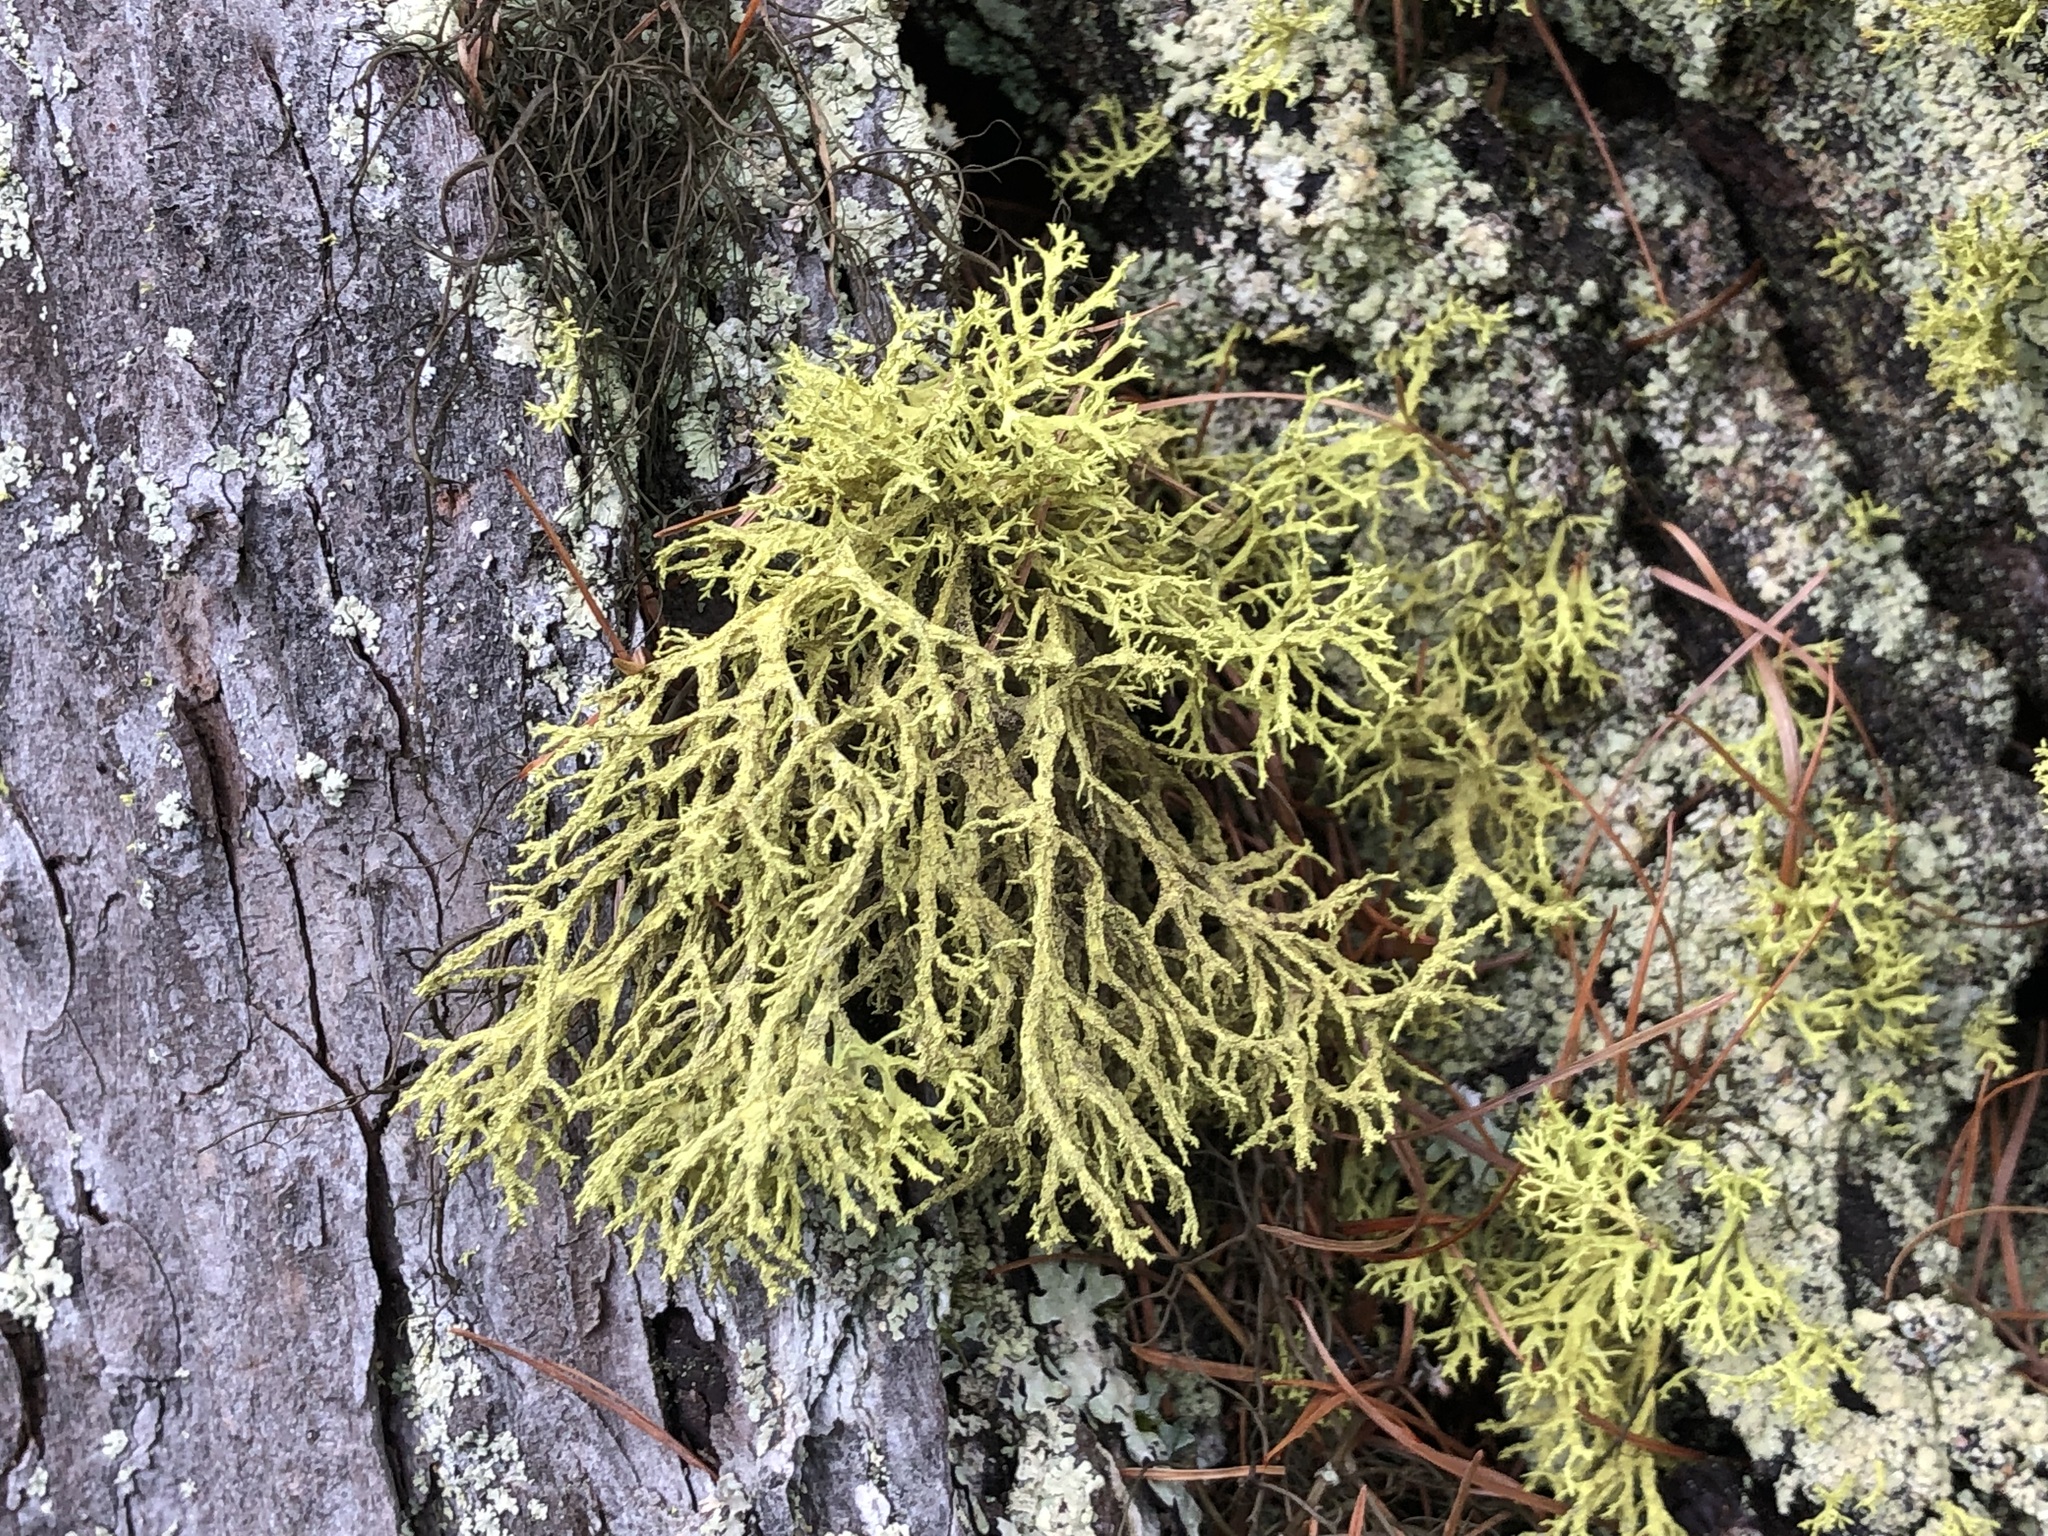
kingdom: Fungi
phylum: Ascomycota
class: Lecanoromycetes
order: Lecanorales
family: Parmeliaceae
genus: Letharia
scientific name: Letharia vulpina
